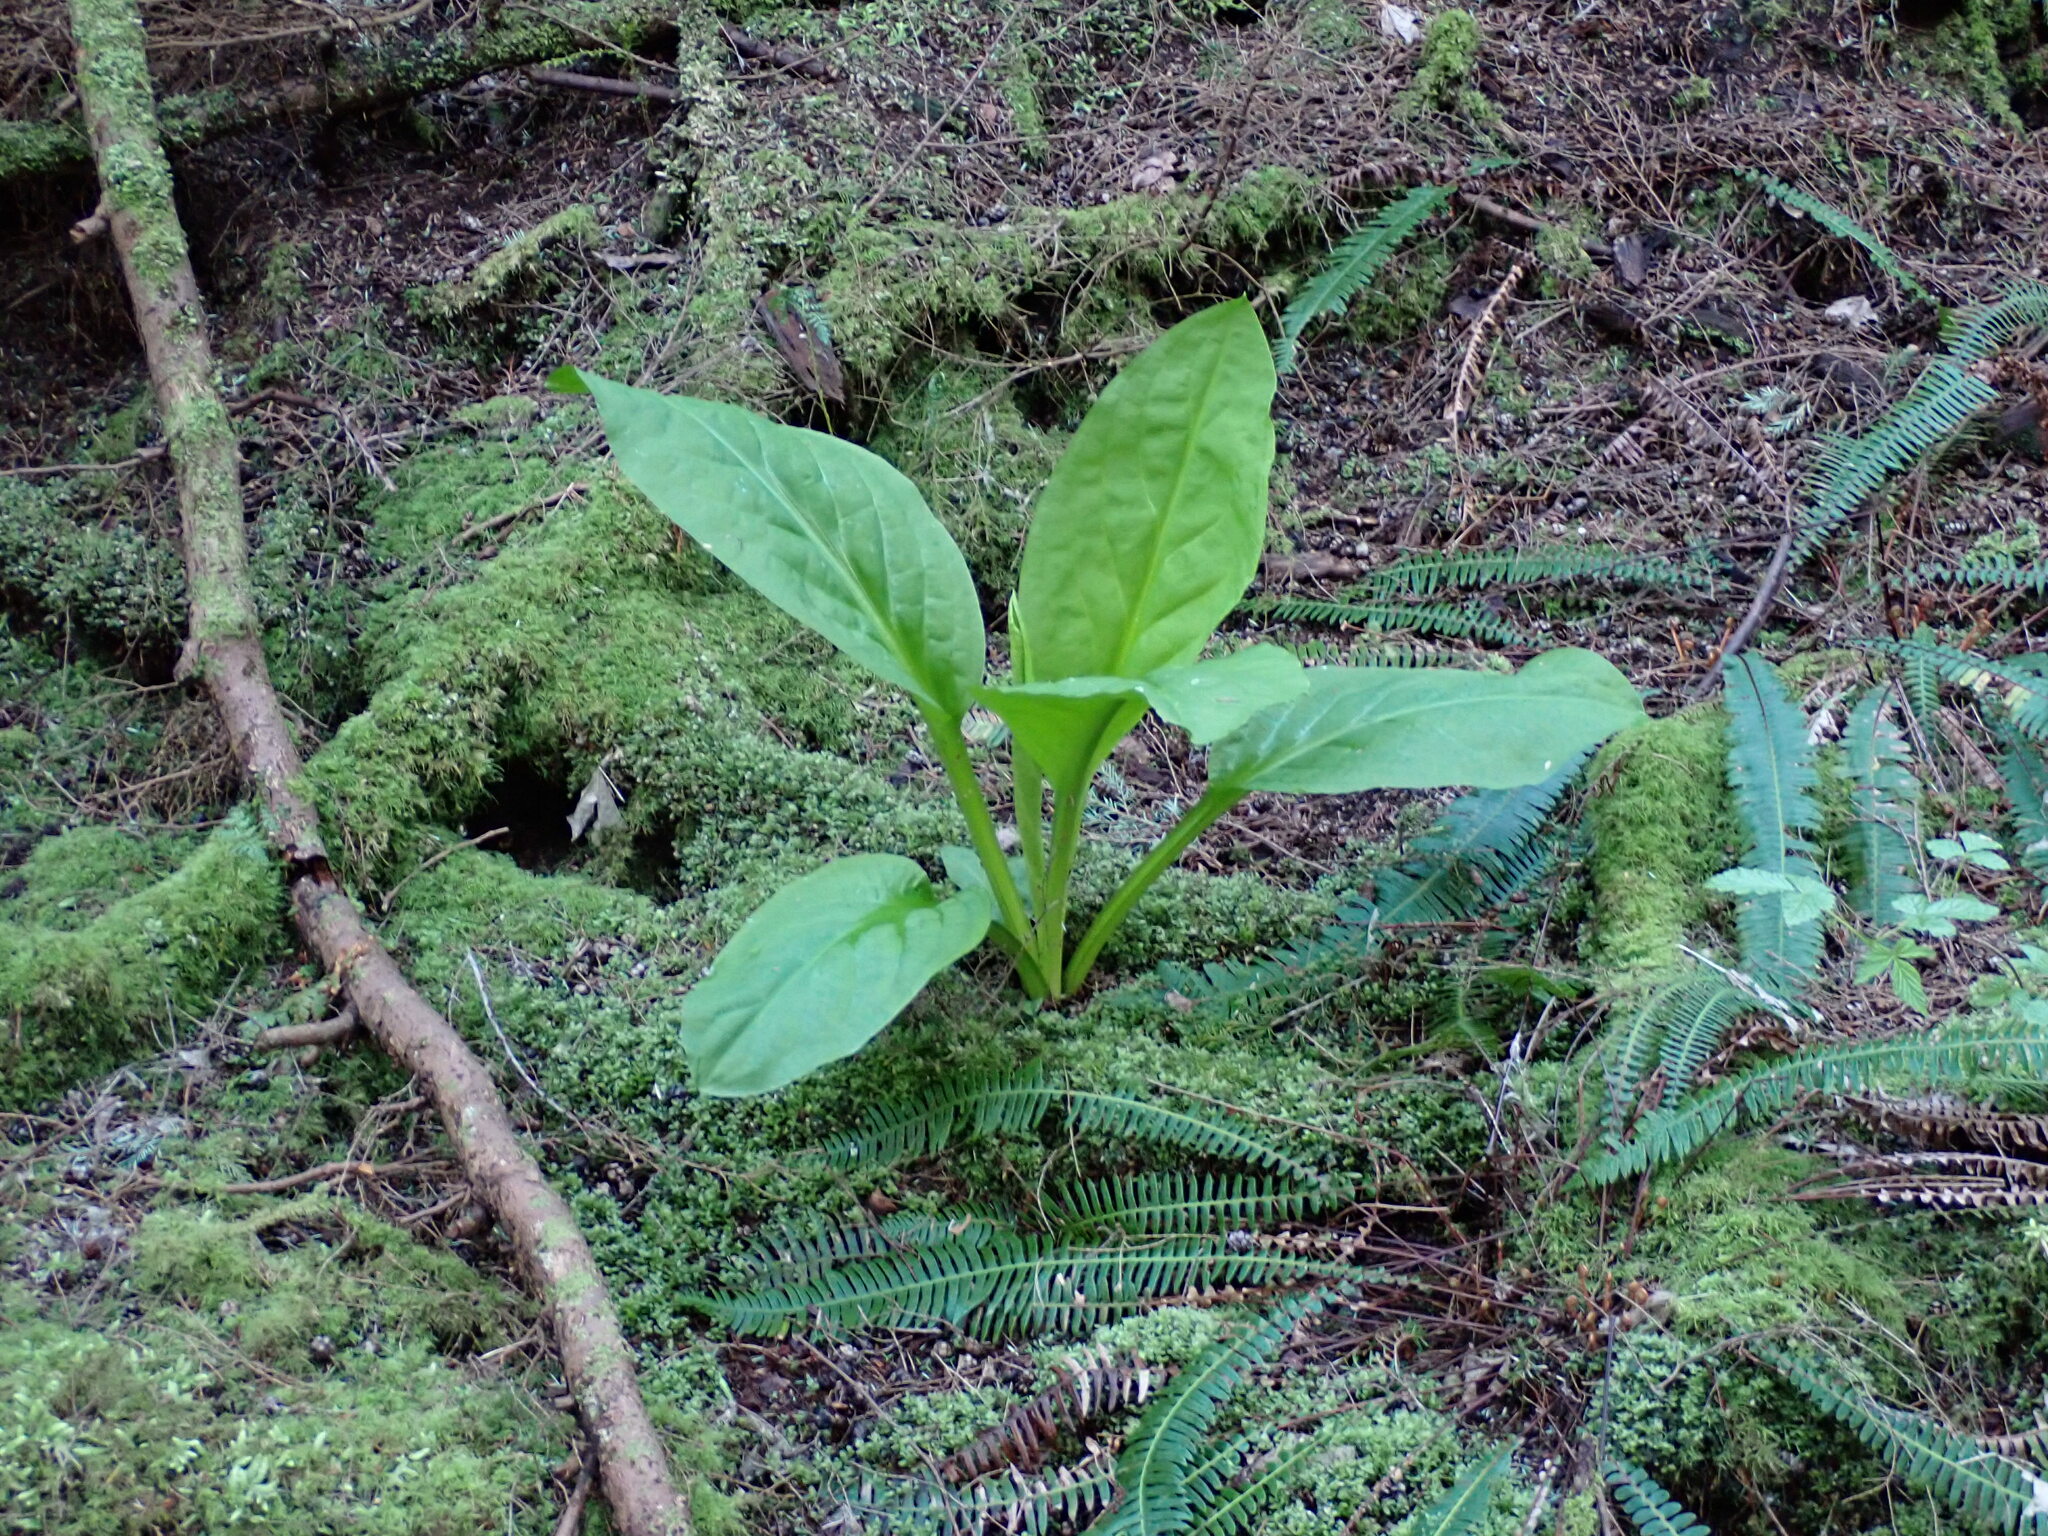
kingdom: Plantae
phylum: Tracheophyta
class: Liliopsida
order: Alismatales
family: Araceae
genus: Lysichiton
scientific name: Lysichiton americanus
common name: American skunk cabbage
